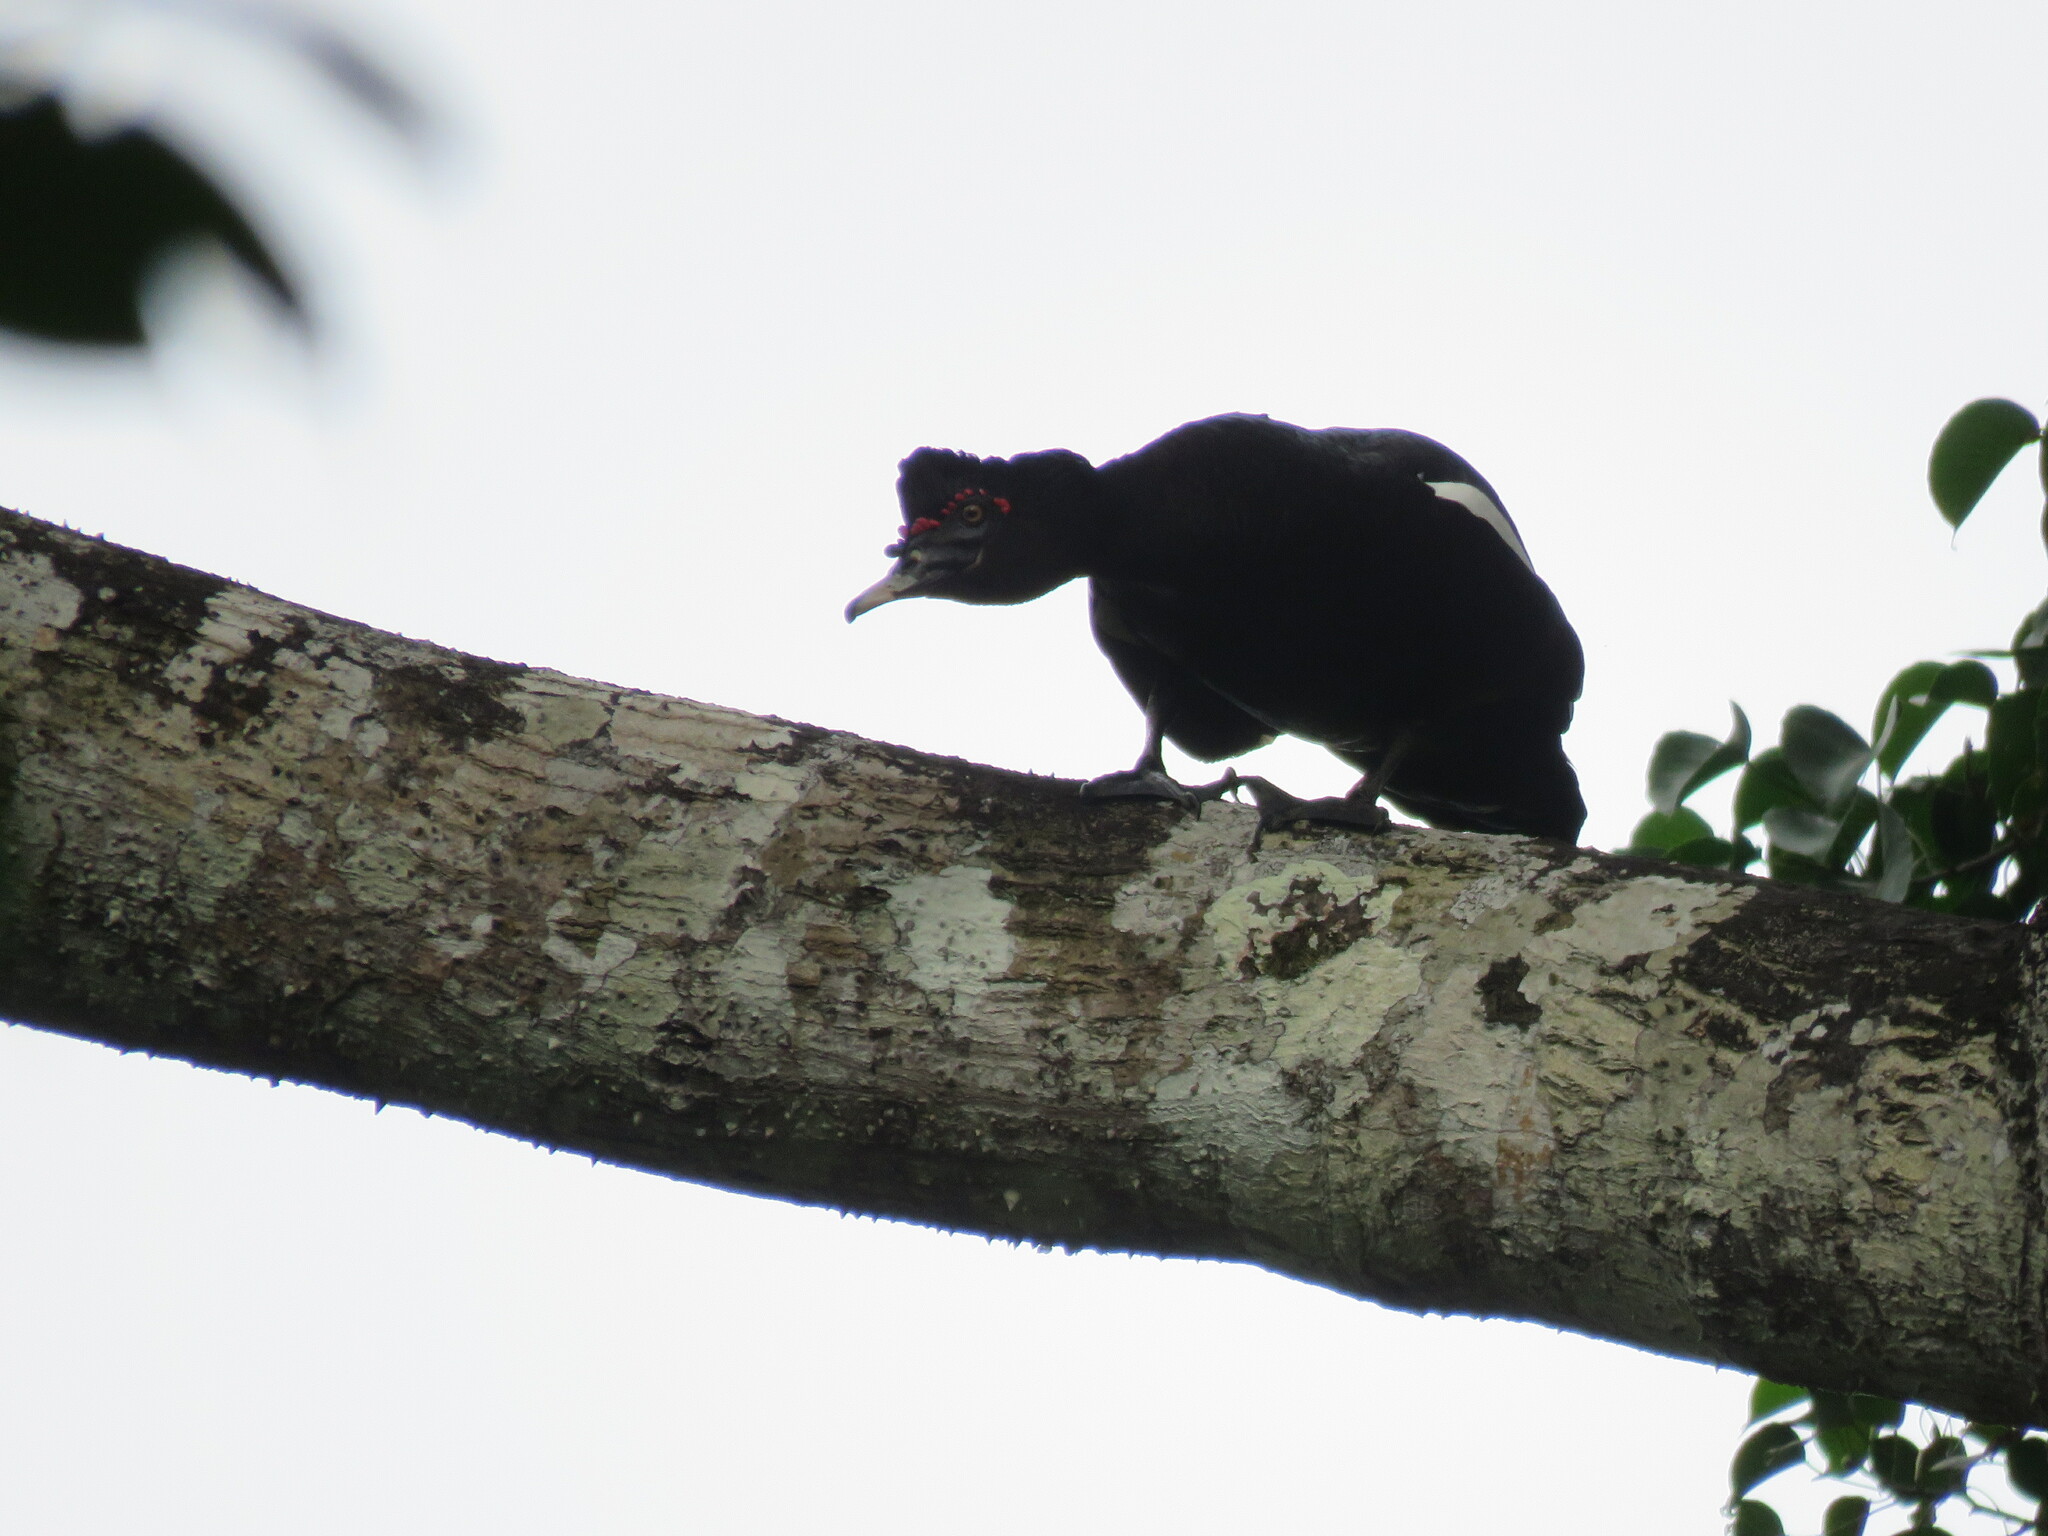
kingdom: Animalia
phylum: Chordata
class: Aves
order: Anseriformes
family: Anatidae
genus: Cairina
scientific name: Cairina moschata
